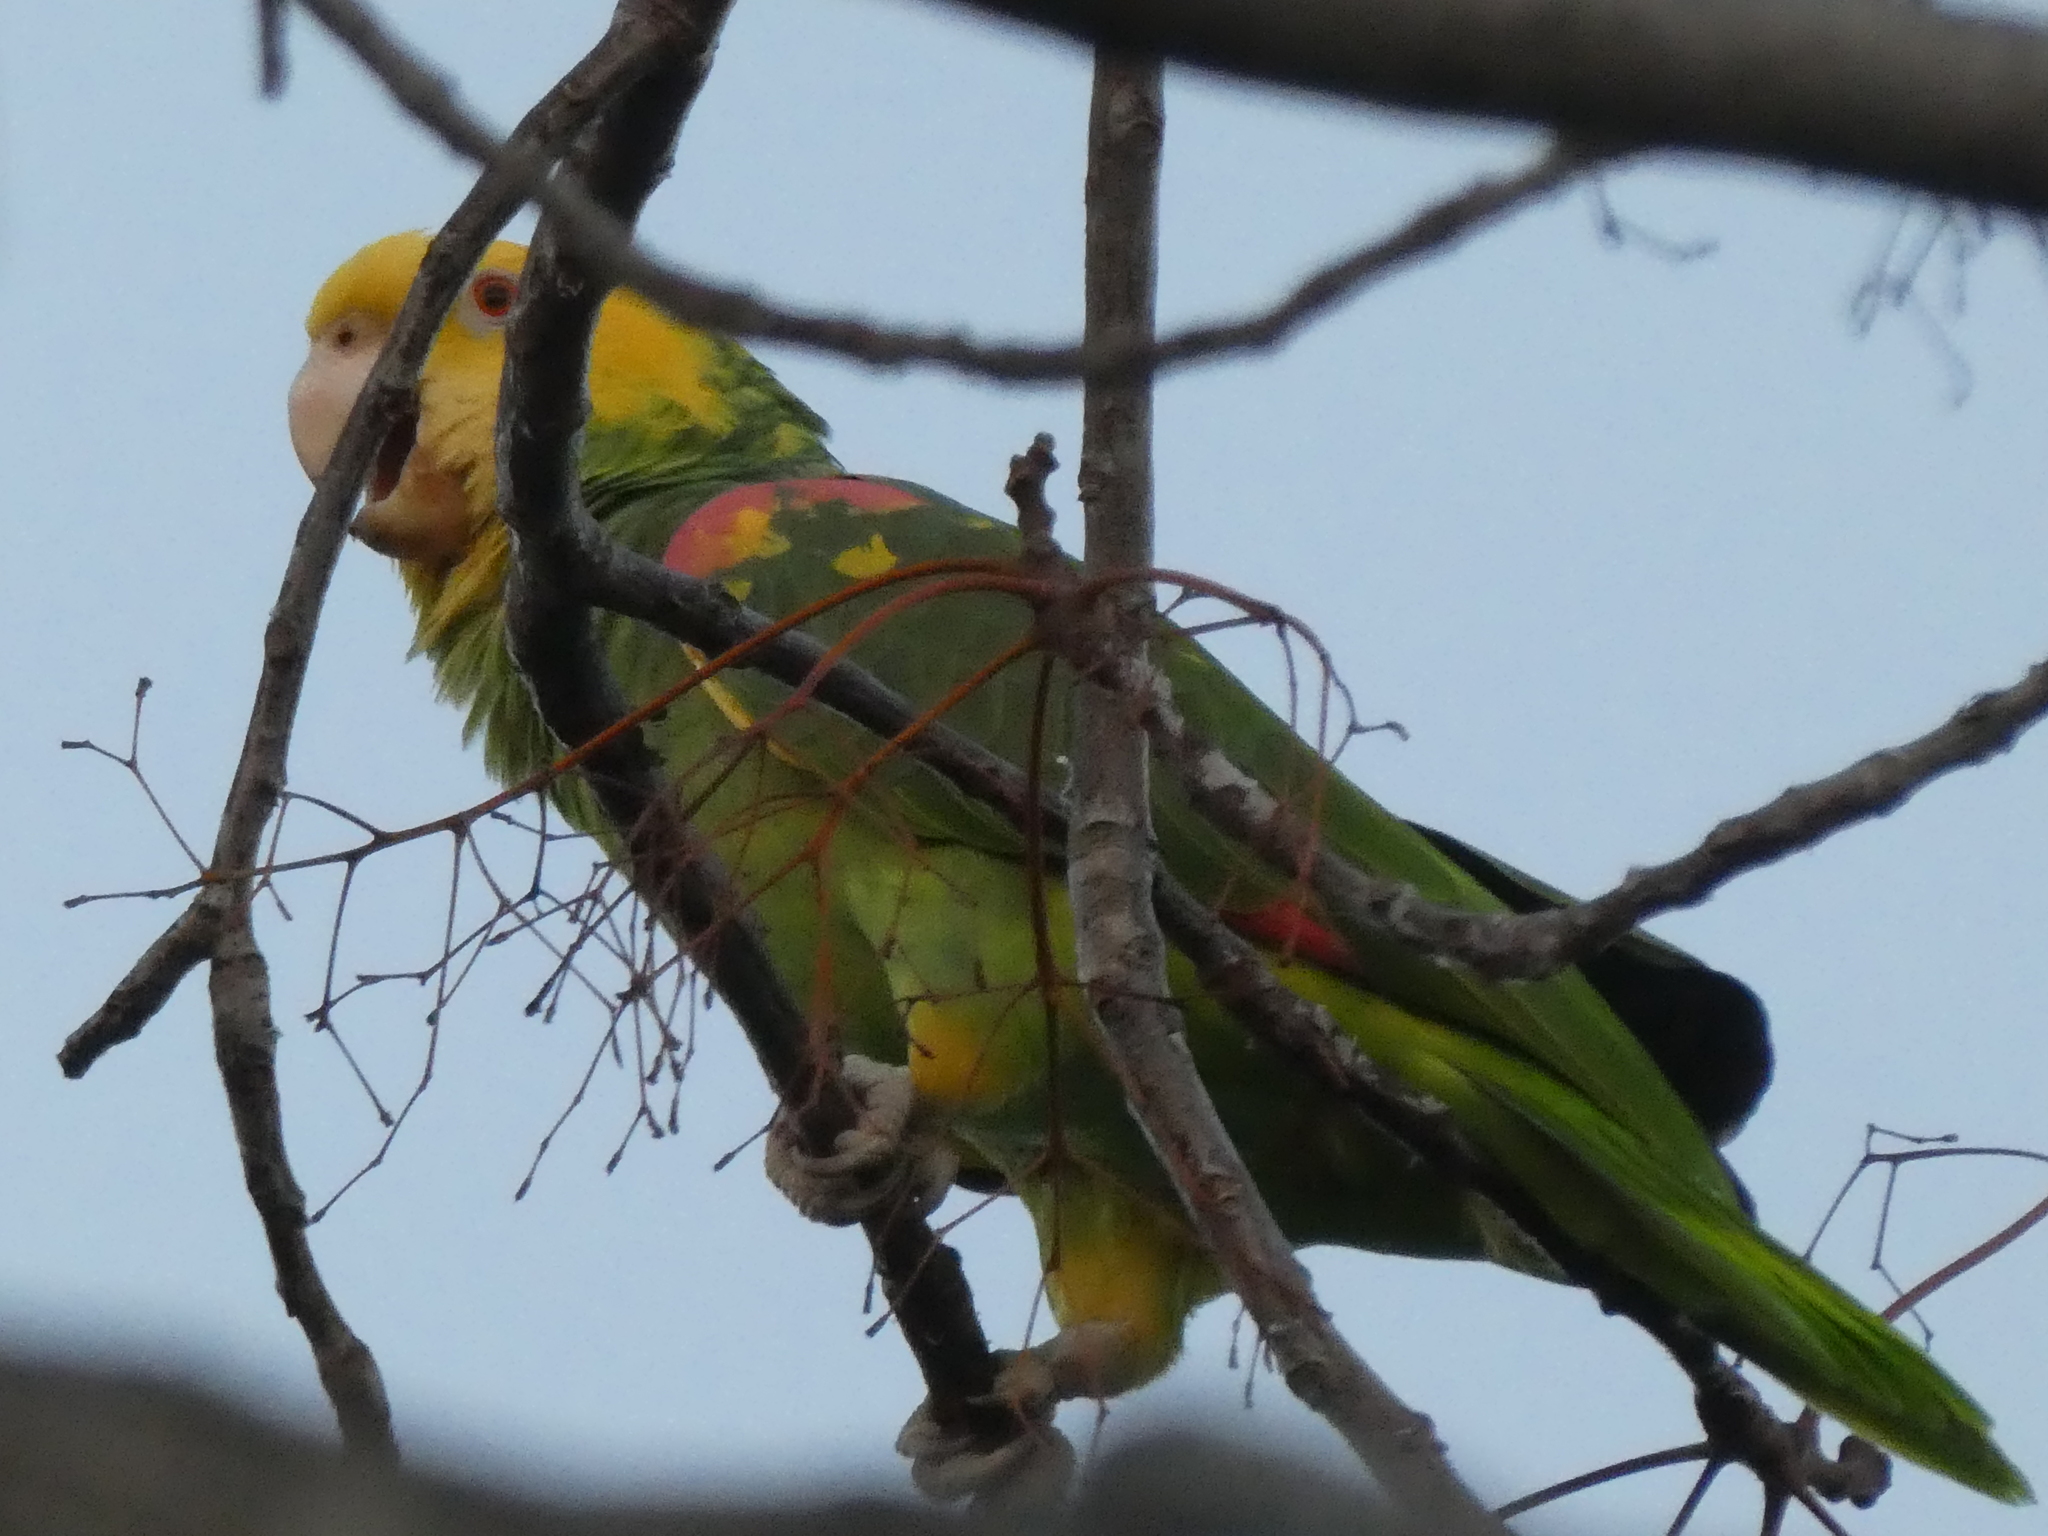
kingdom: Animalia
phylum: Chordata
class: Aves
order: Psittaciformes
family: Psittacidae
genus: Amazona
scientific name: Amazona oratrix
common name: Yellow-headed amazon
